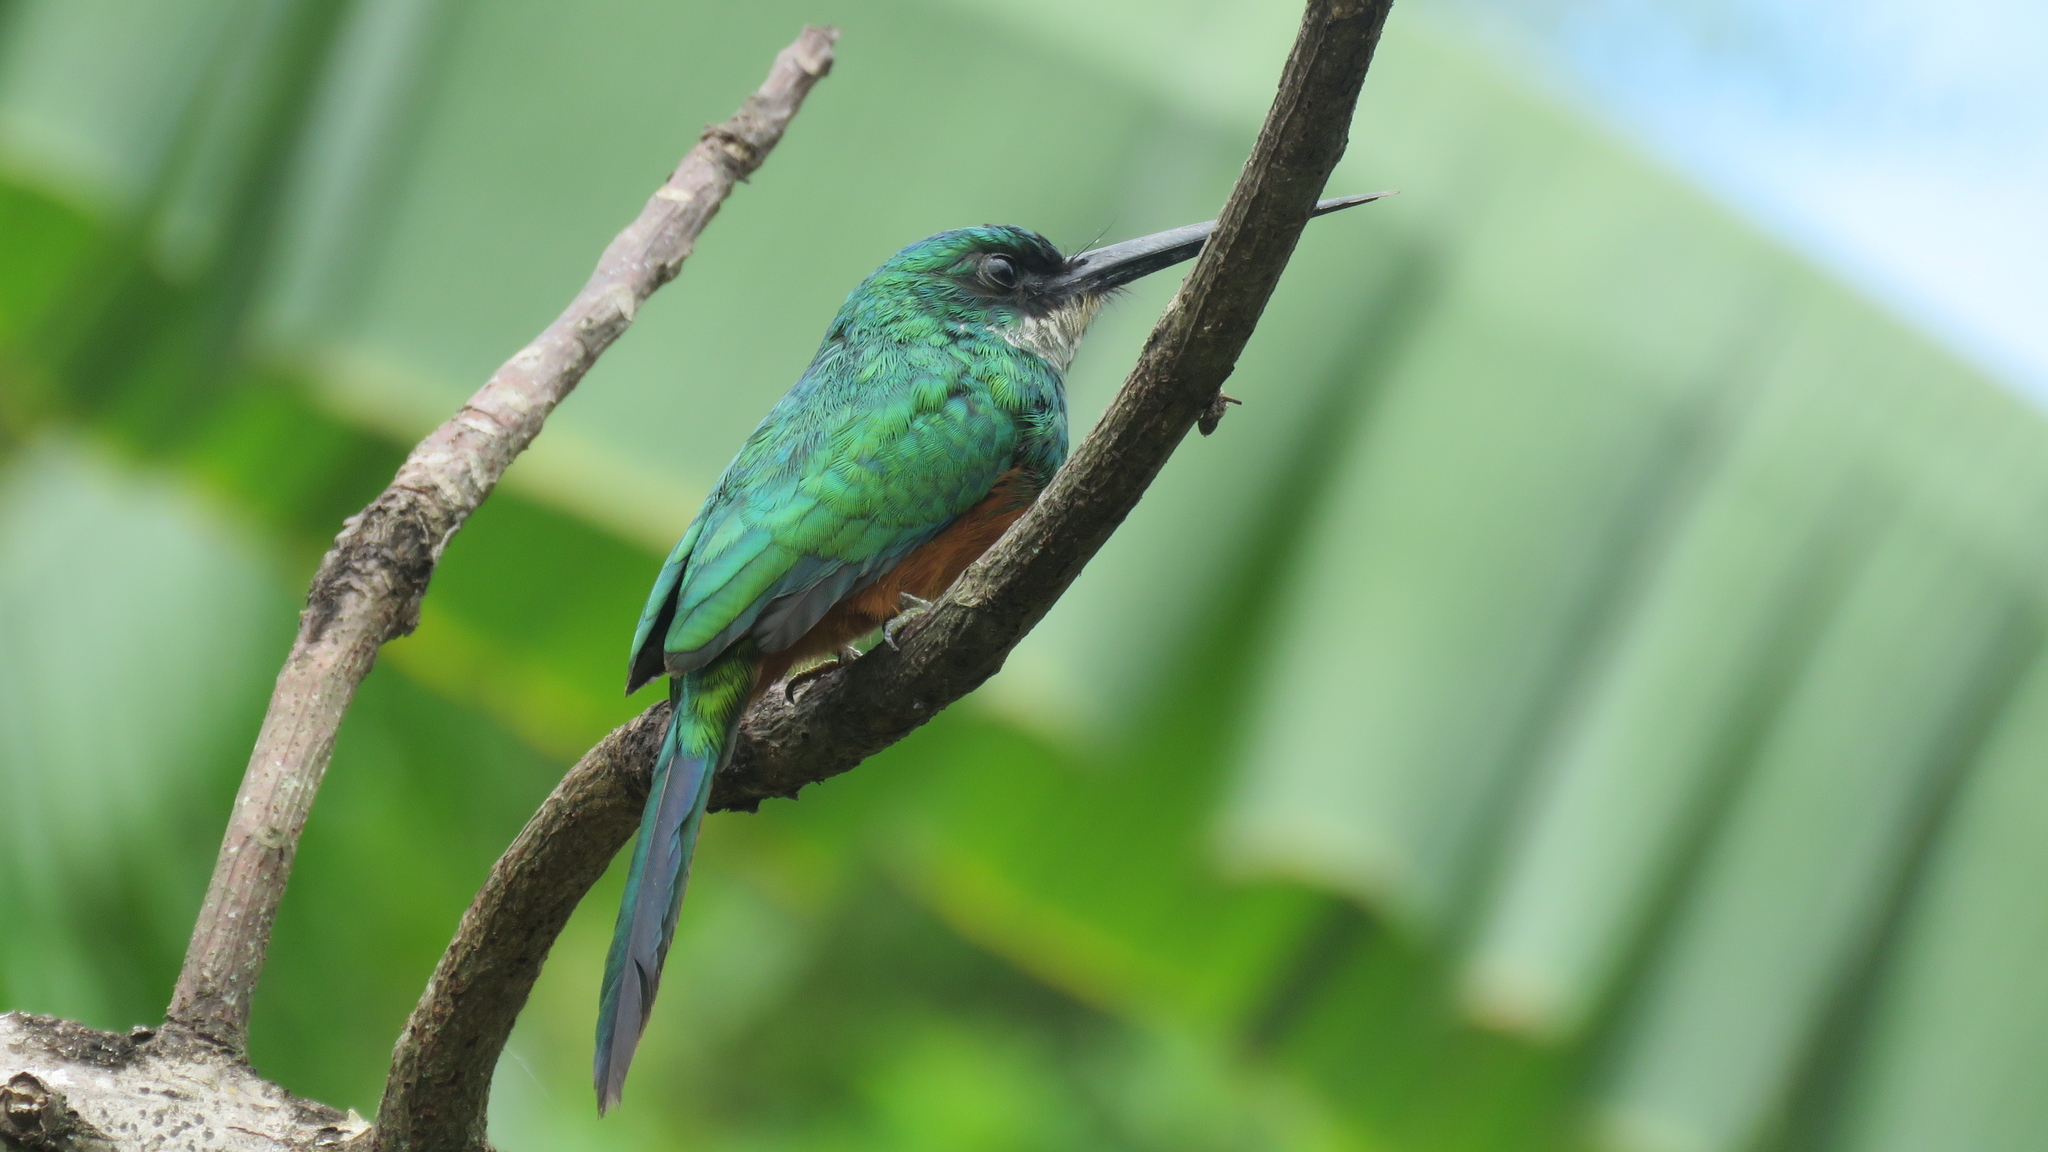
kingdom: Animalia
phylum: Chordata
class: Aves
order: Piciformes
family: Galbulidae
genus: Galbula
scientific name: Galbula ruficauda
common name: Rufous-tailed jacamar
